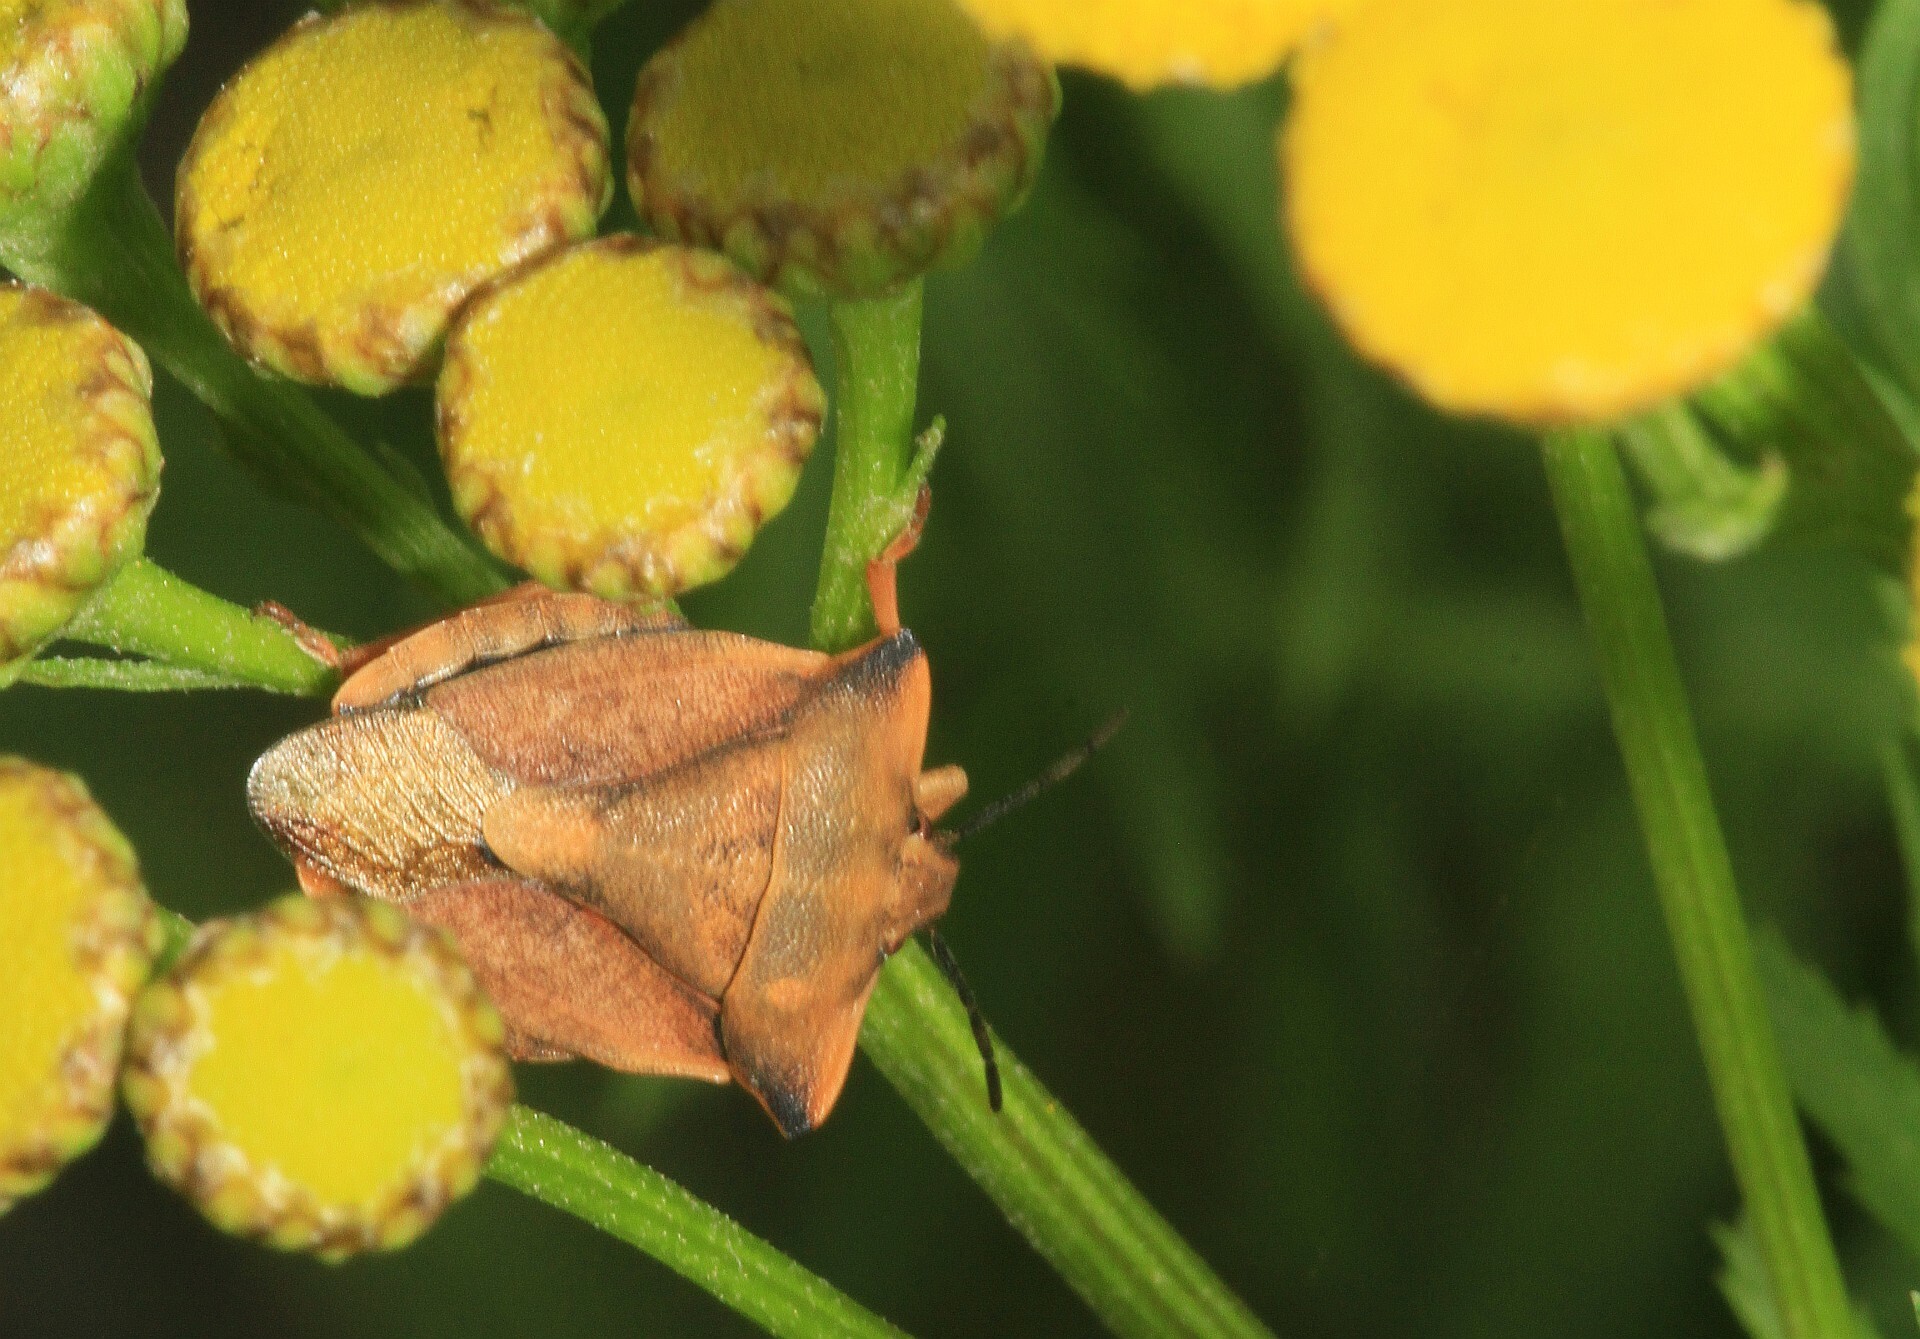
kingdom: Animalia
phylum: Arthropoda
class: Insecta
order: Hemiptera
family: Pentatomidae
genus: Carpocoris
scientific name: Carpocoris fuscispinus
